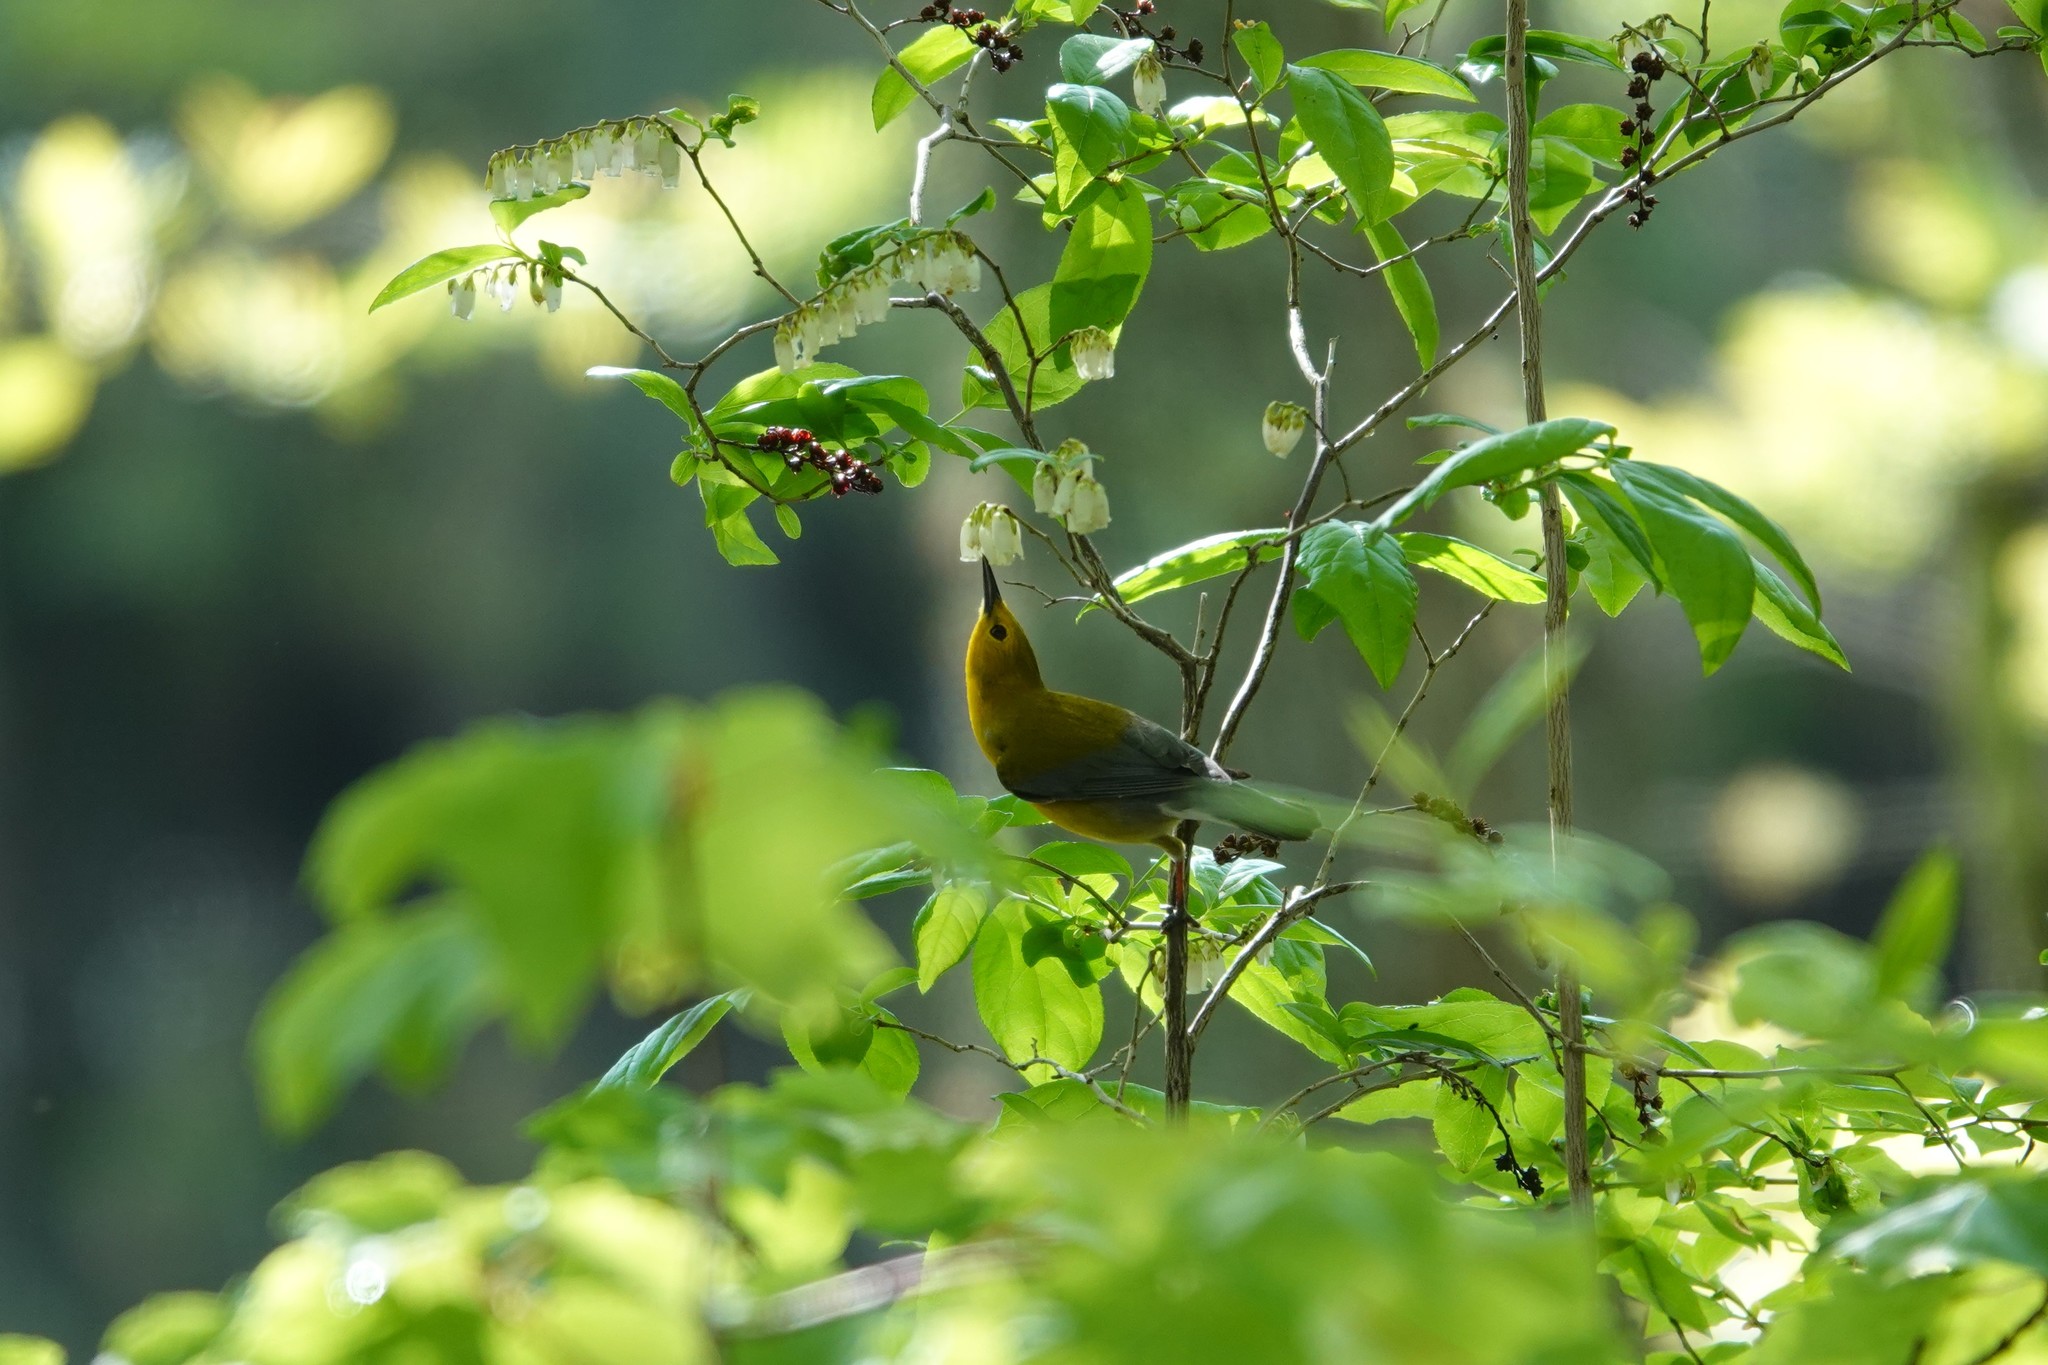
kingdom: Animalia
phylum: Chordata
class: Aves
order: Passeriformes
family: Parulidae
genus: Protonotaria
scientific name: Protonotaria citrea
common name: Prothonotary warbler
